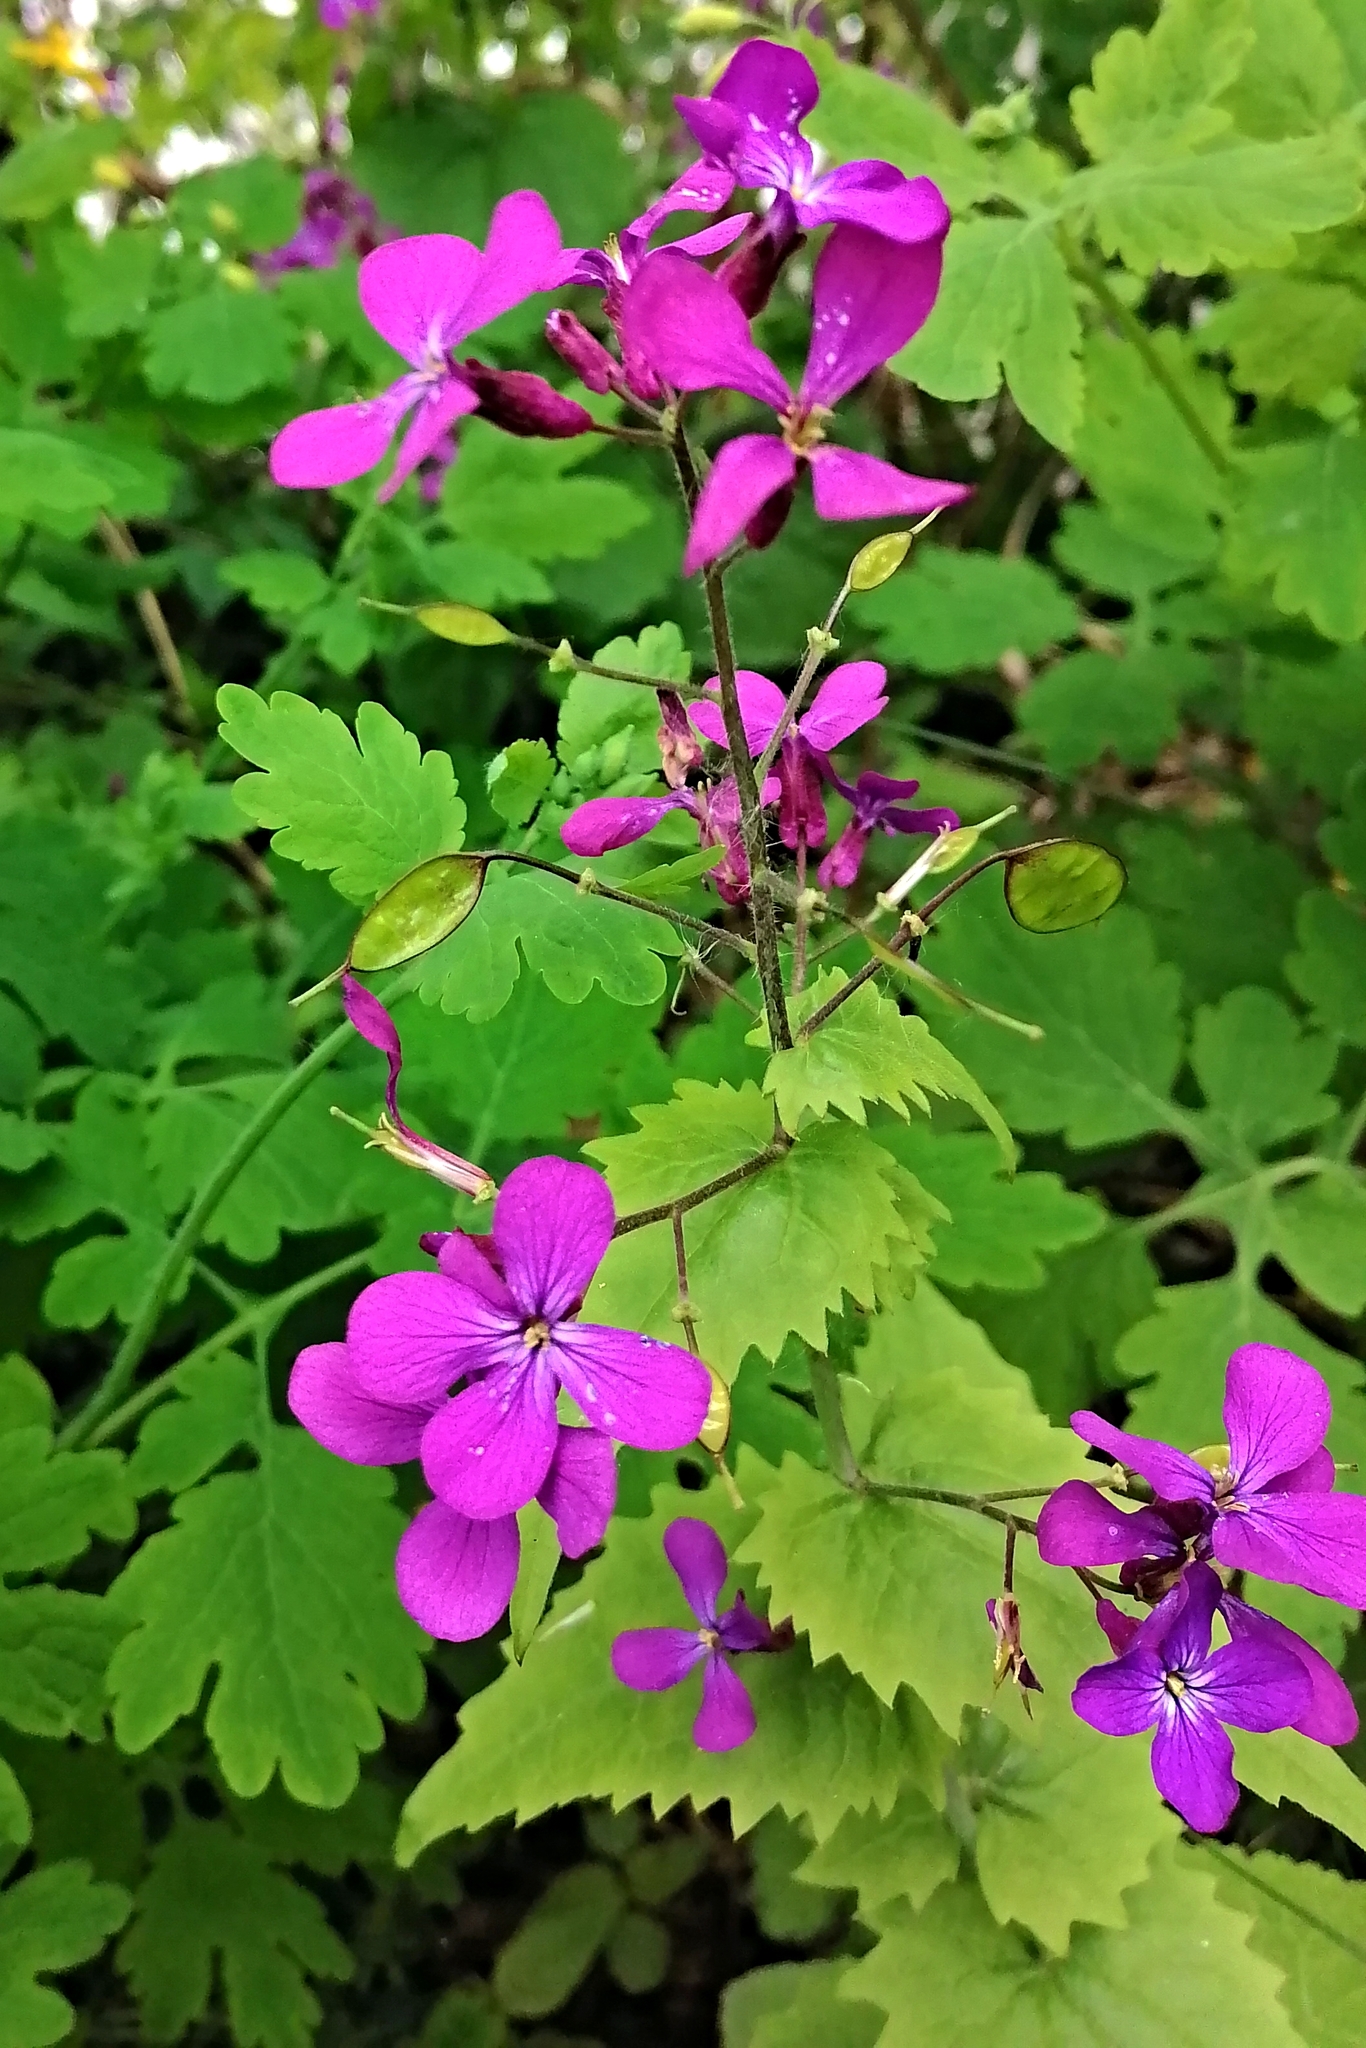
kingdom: Plantae
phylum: Tracheophyta
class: Magnoliopsida
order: Brassicales
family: Brassicaceae
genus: Lunaria
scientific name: Lunaria annua
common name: Honesty
